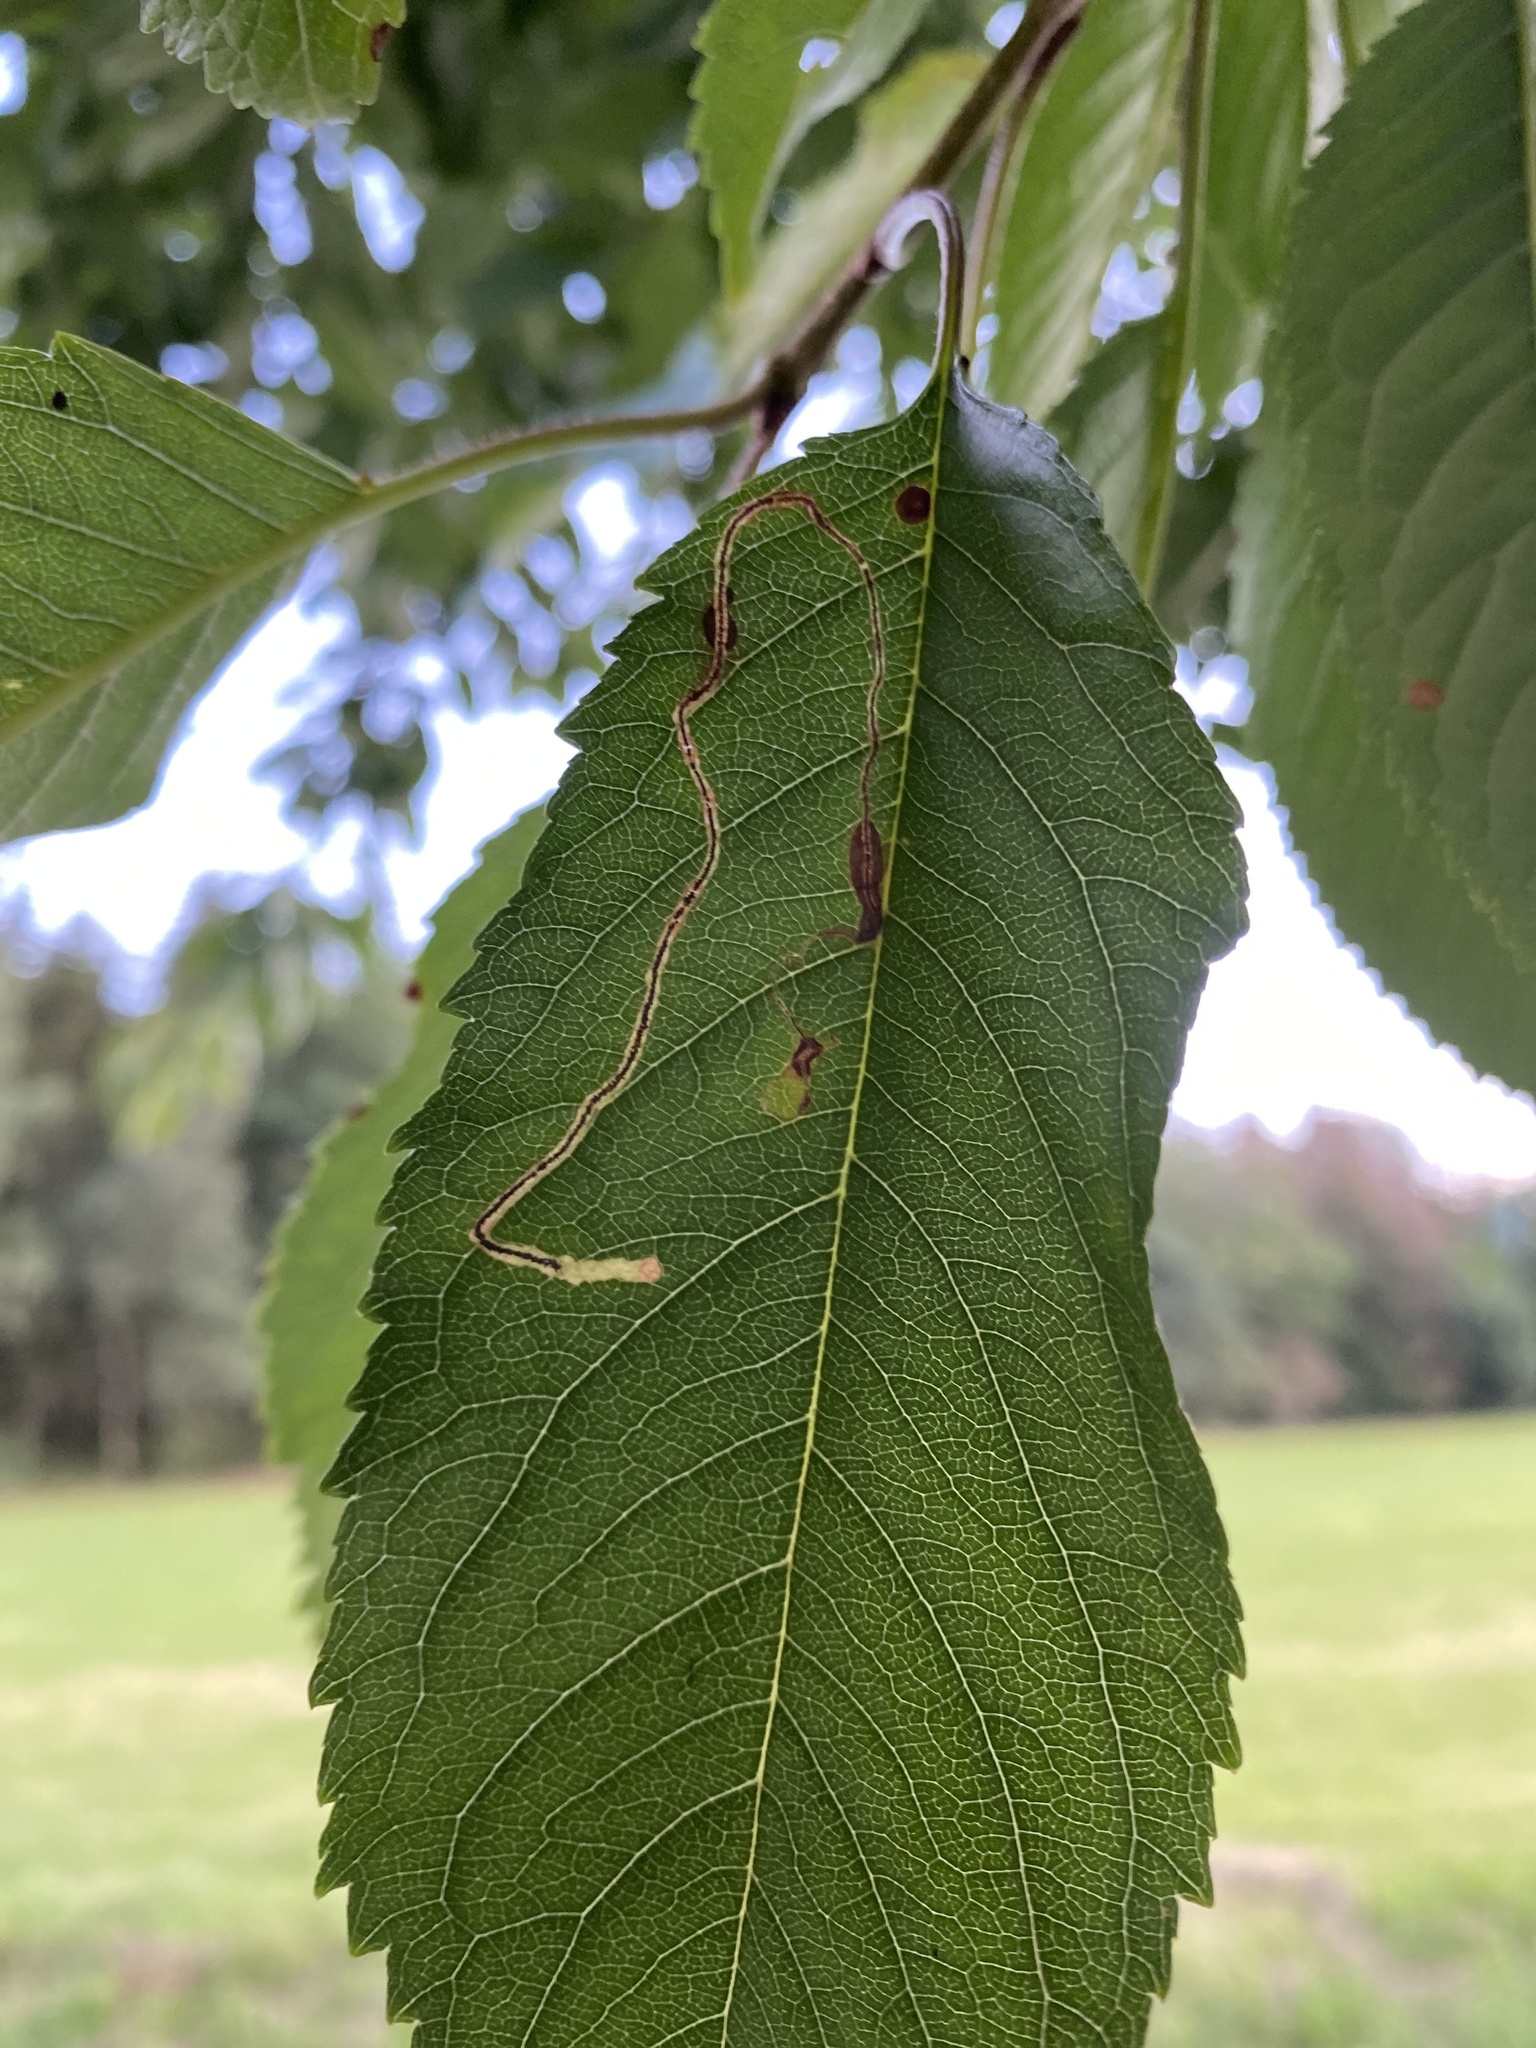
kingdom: Animalia
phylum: Arthropoda
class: Insecta
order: Lepidoptera
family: Lyonetiidae
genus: Lyonetia
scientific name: Lyonetia clerkella
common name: Apple leaf miner
